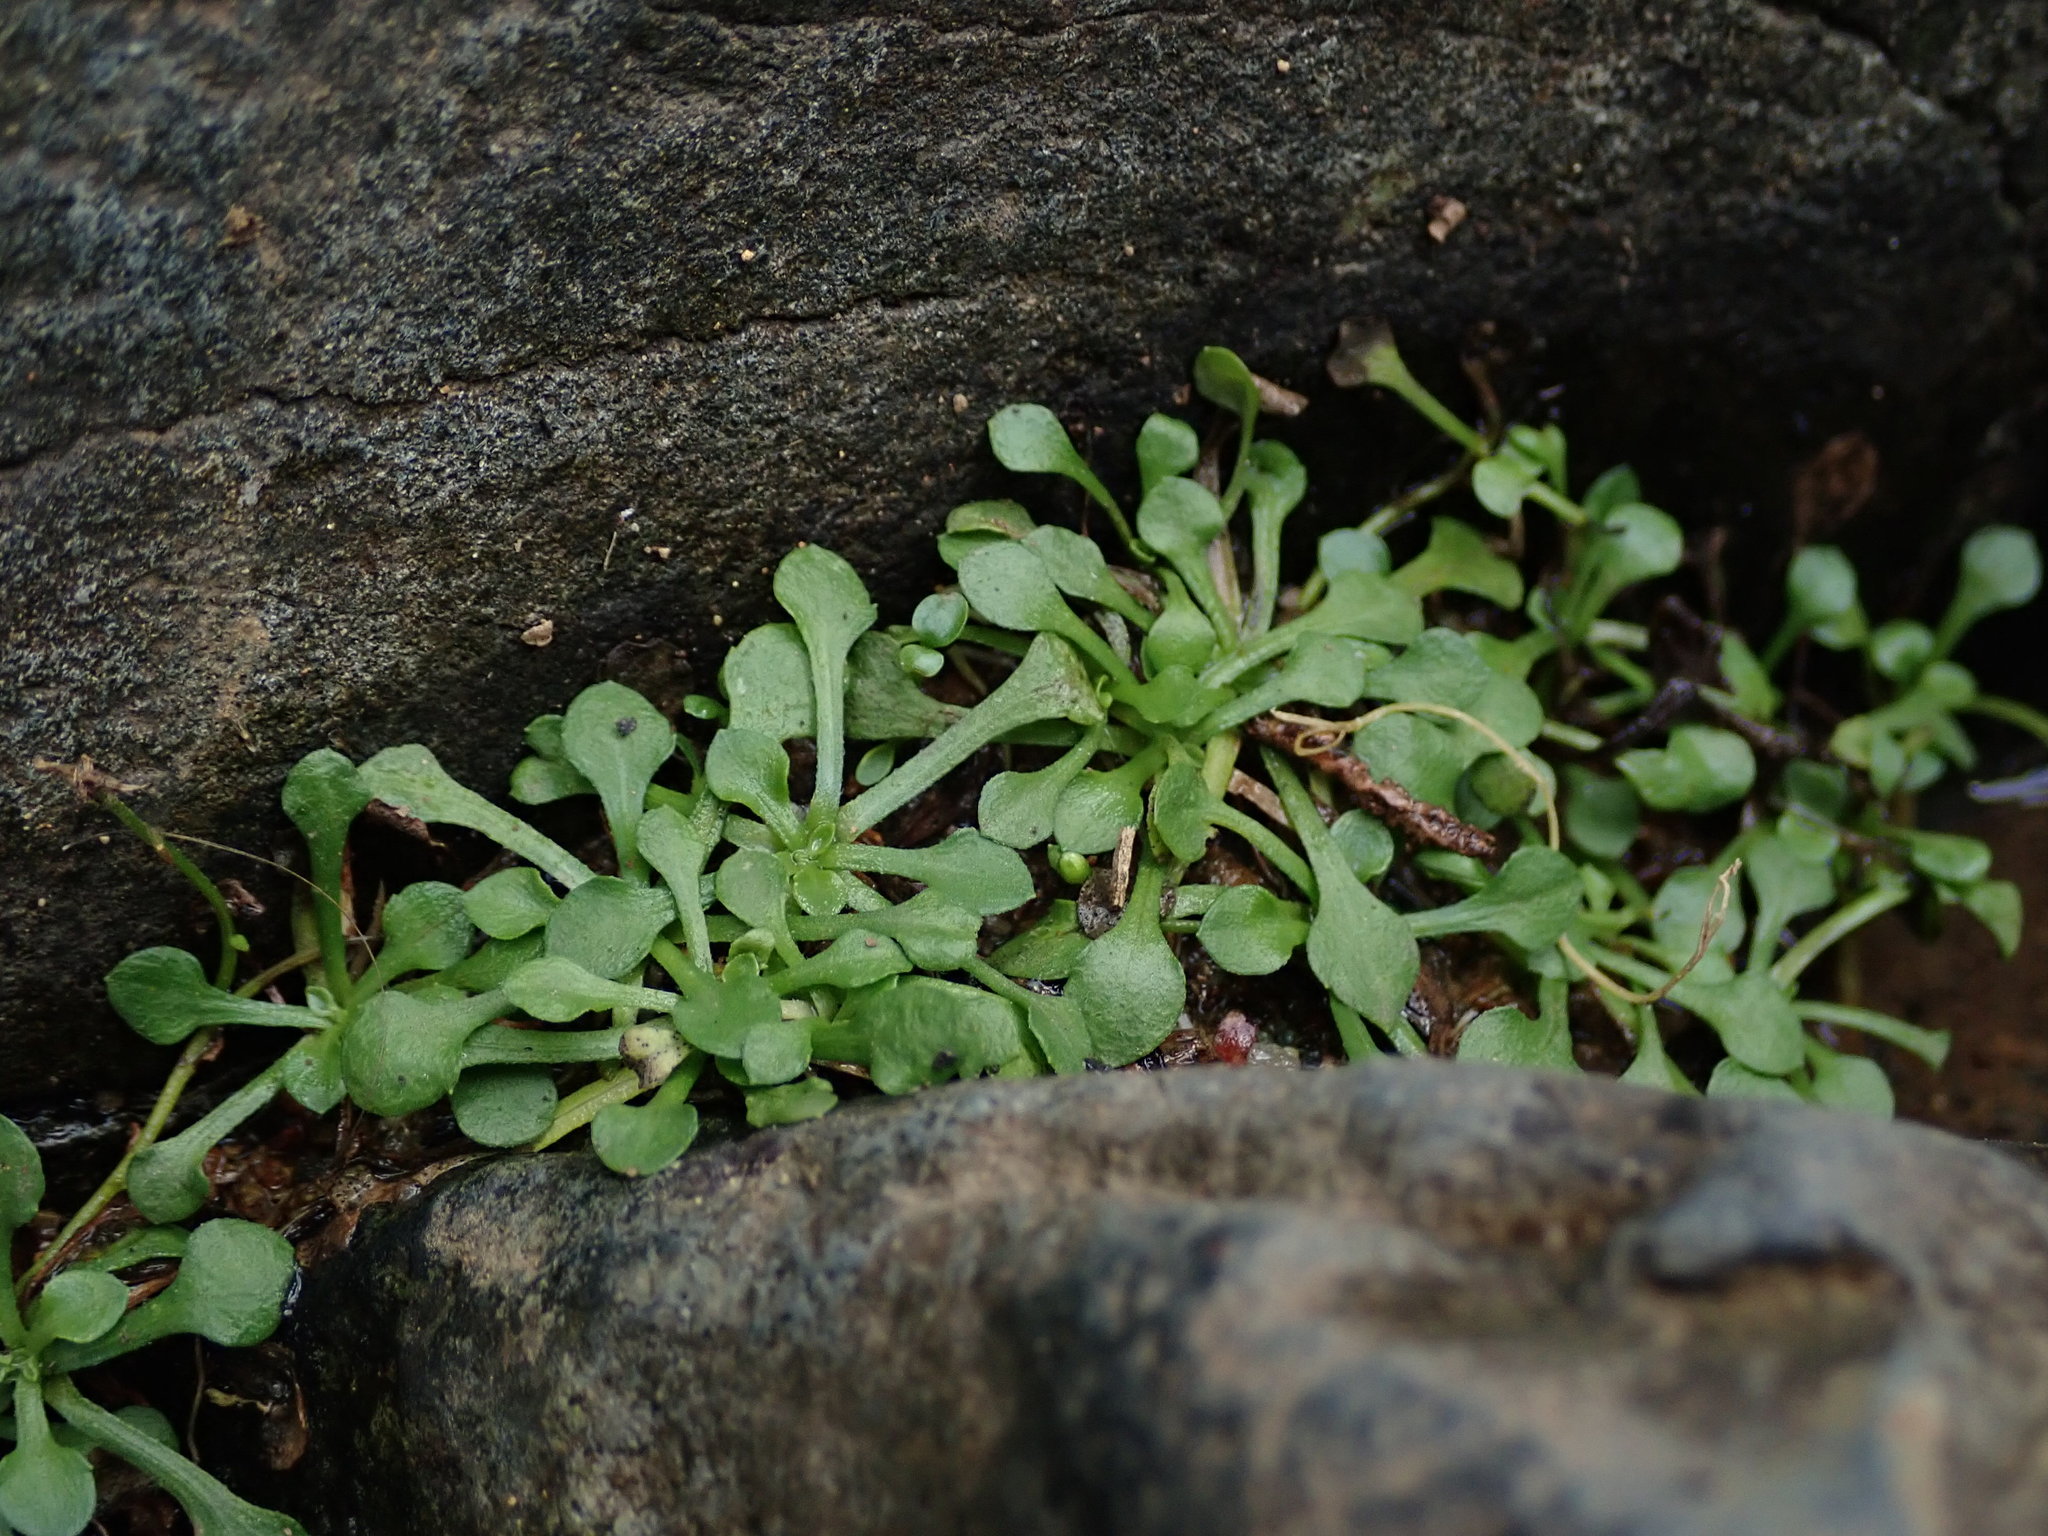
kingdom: Plantae
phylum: Tracheophyta
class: Magnoliopsida
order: Asterales
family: Asteraceae
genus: Erigeron
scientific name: Erigeron bellioides
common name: Bellorita
